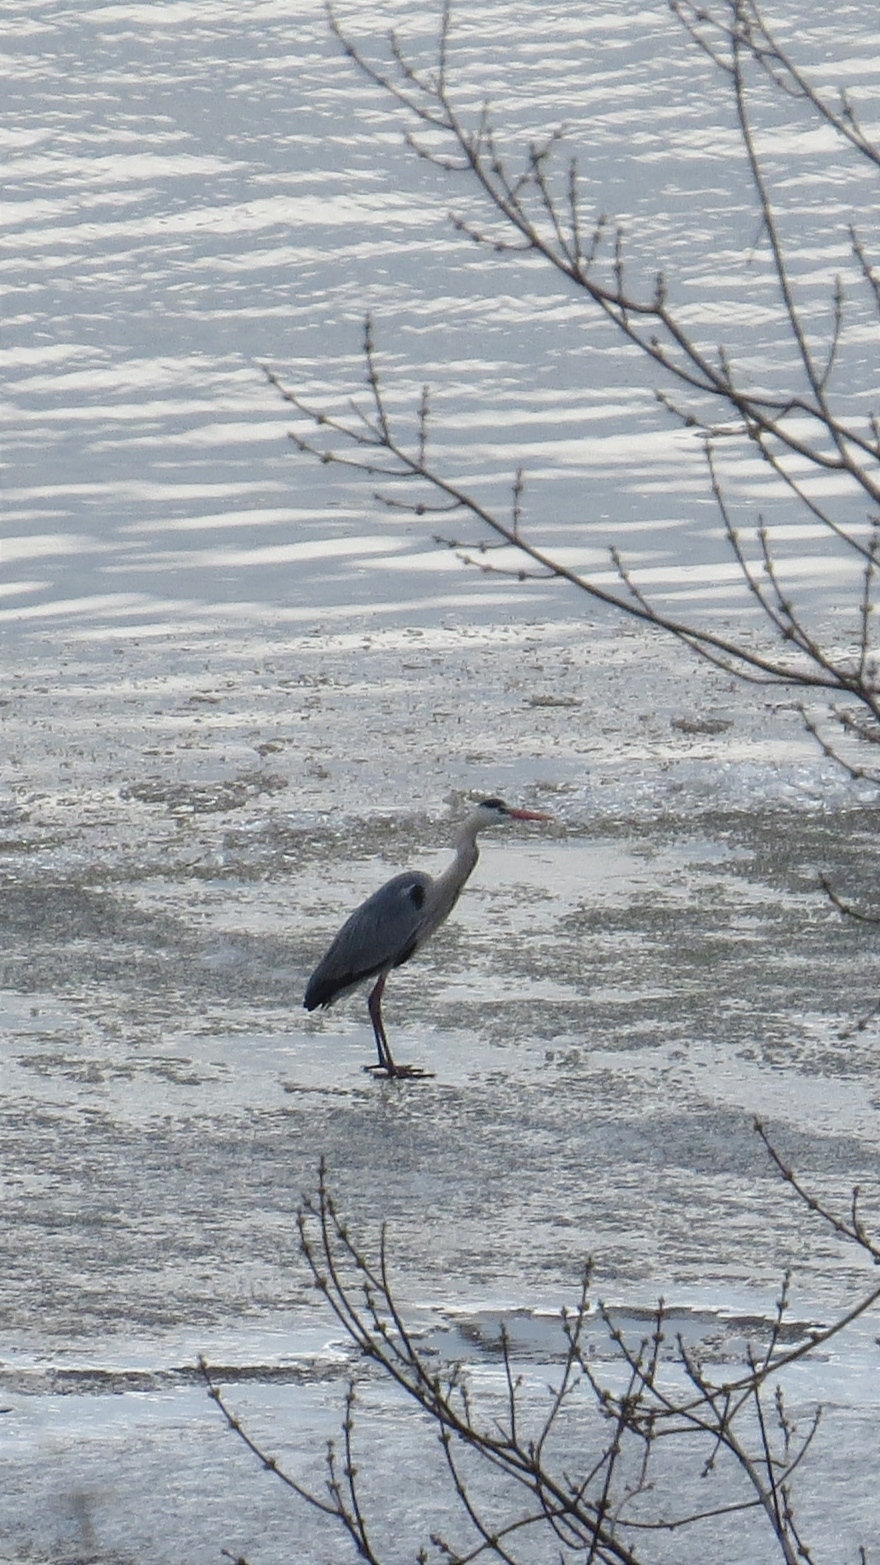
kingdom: Animalia
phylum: Chordata
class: Aves
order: Pelecaniformes
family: Ardeidae
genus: Ardea
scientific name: Ardea cinerea
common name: Grey heron
